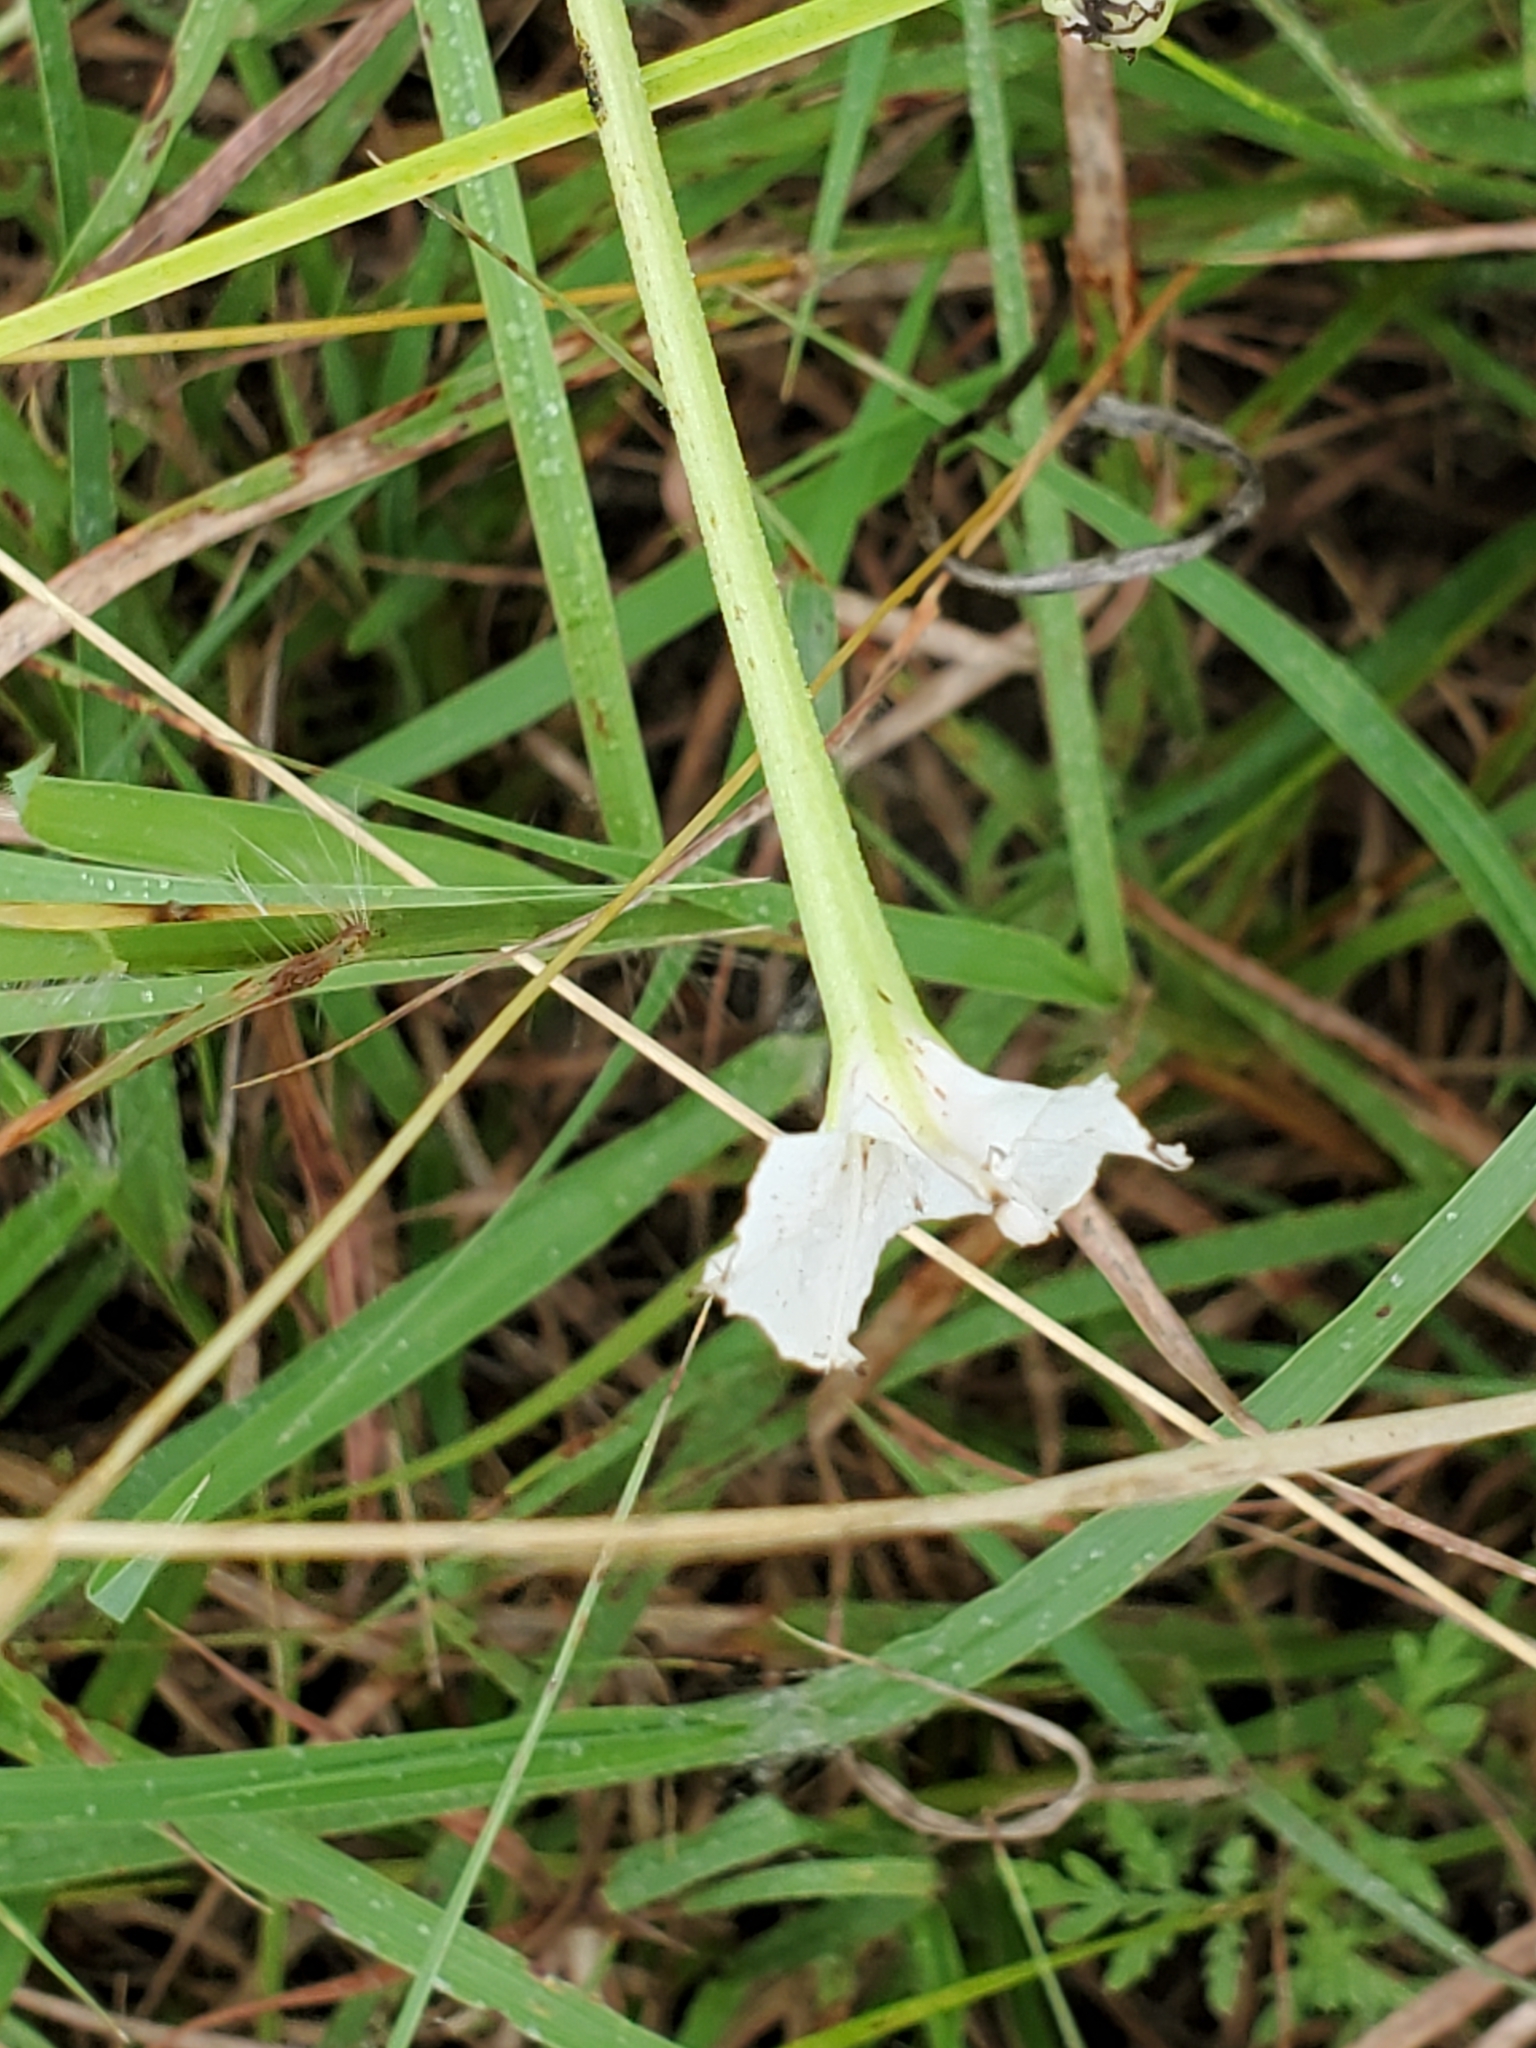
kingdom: Plantae
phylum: Tracheophyta
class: Magnoliopsida
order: Caryophyllales
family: Nyctaginaceae
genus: Acleisanthes
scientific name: Acleisanthes longiflora
